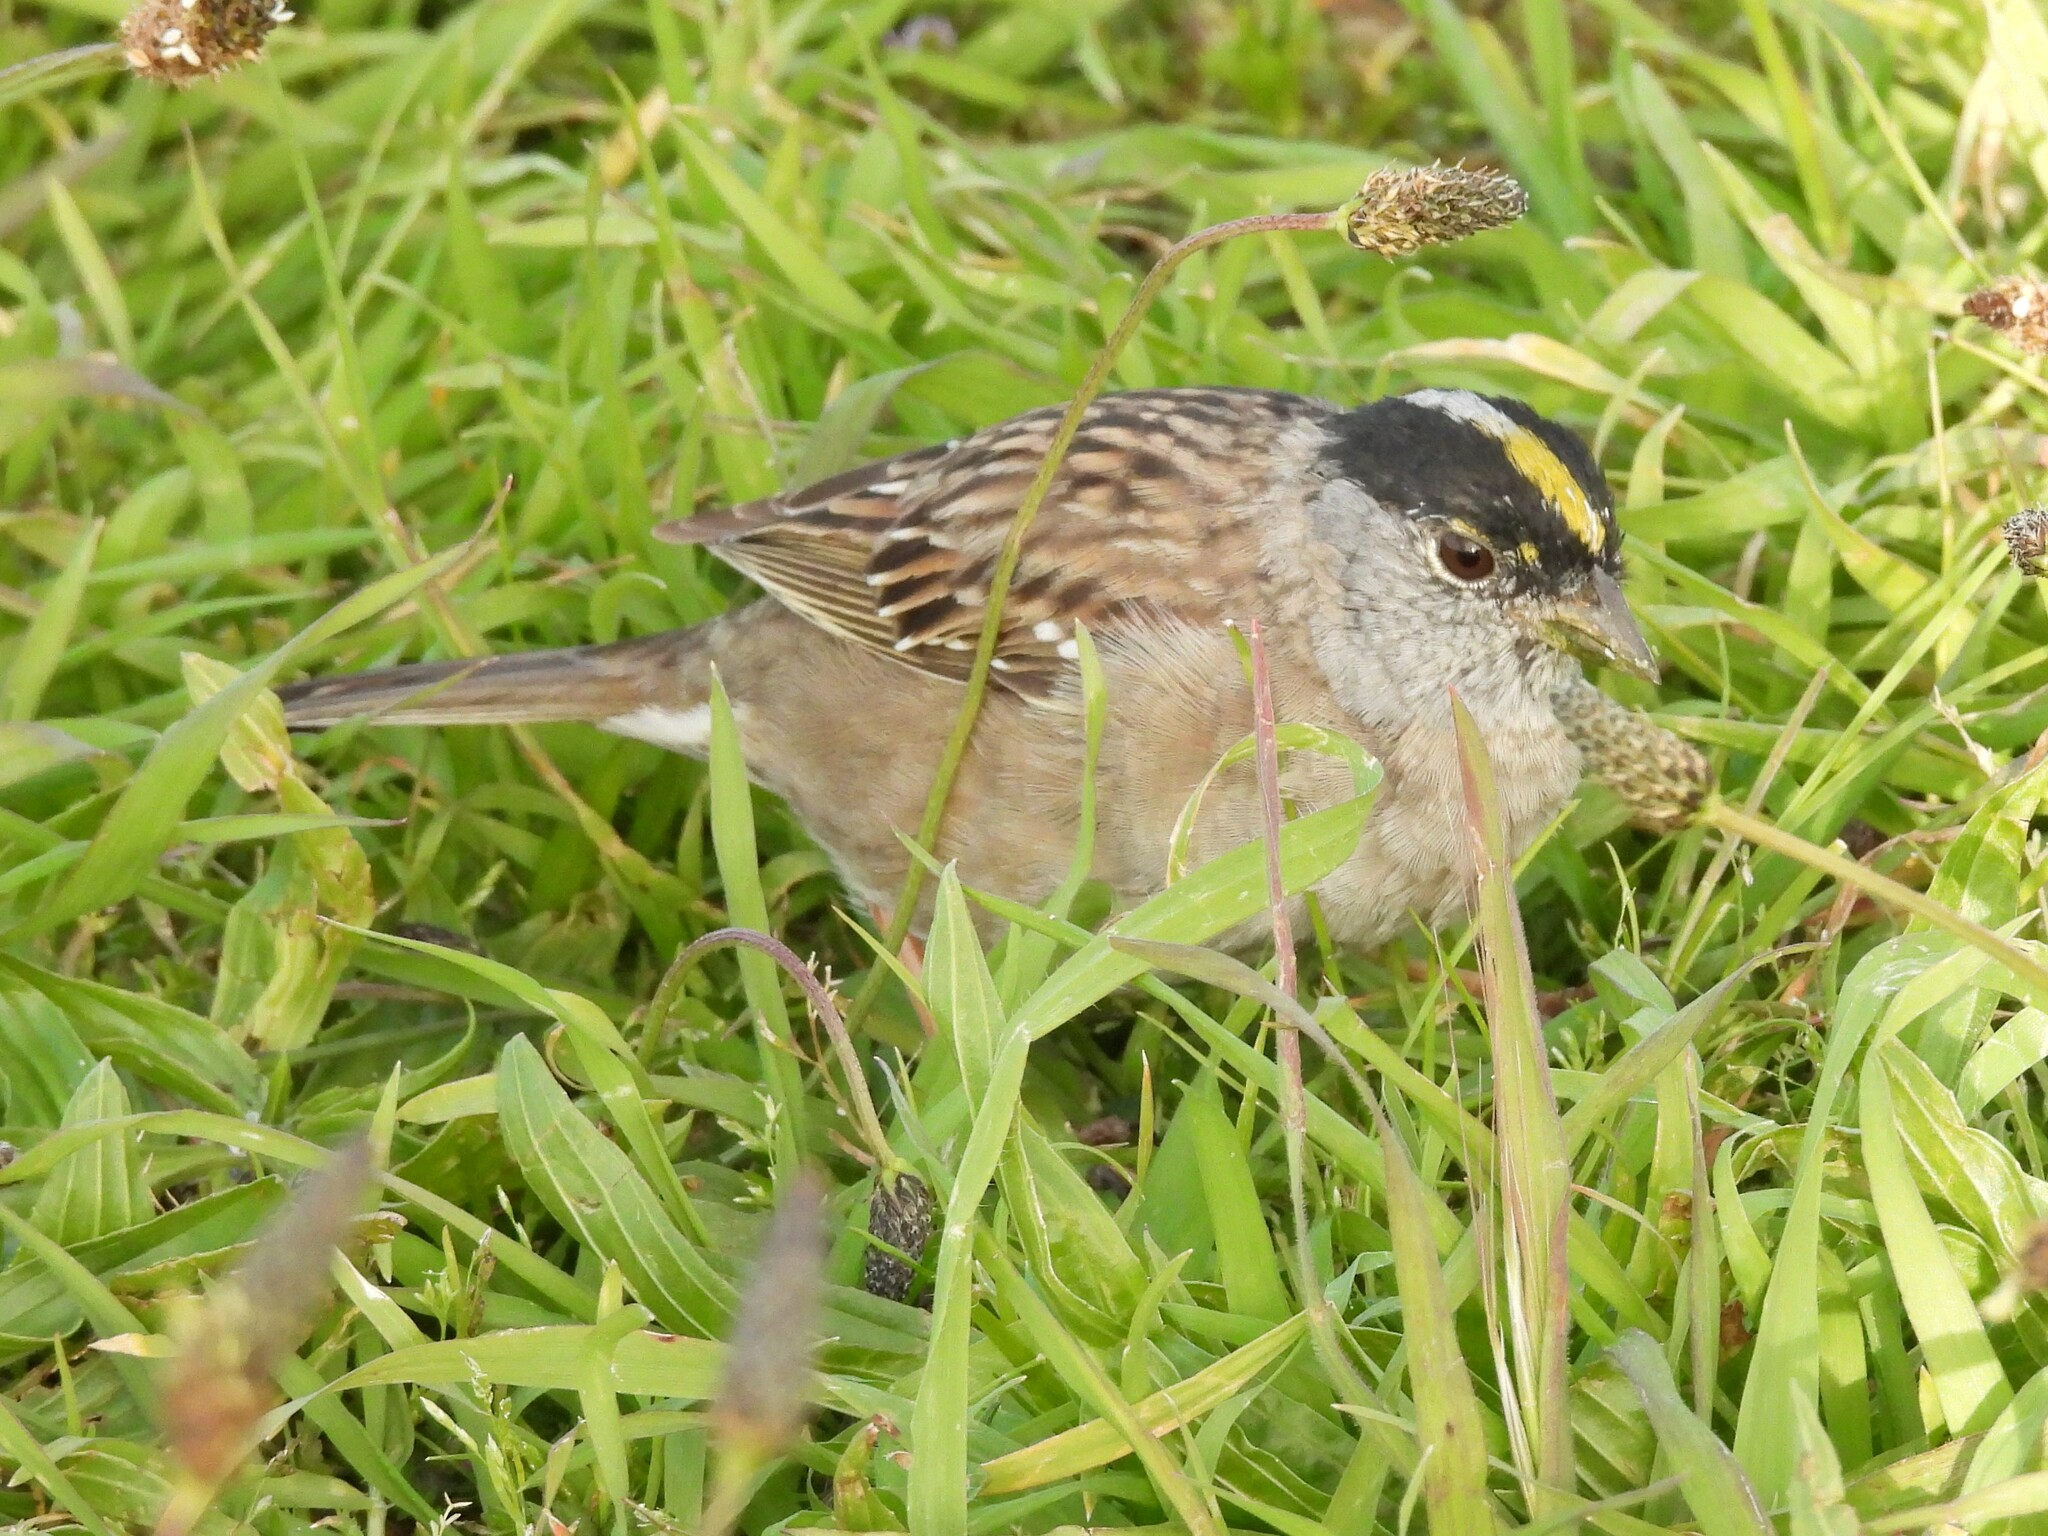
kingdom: Animalia
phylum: Chordata
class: Aves
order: Passeriformes
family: Passerellidae
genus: Zonotrichia
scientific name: Zonotrichia atricapilla
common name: Golden-crowned sparrow
